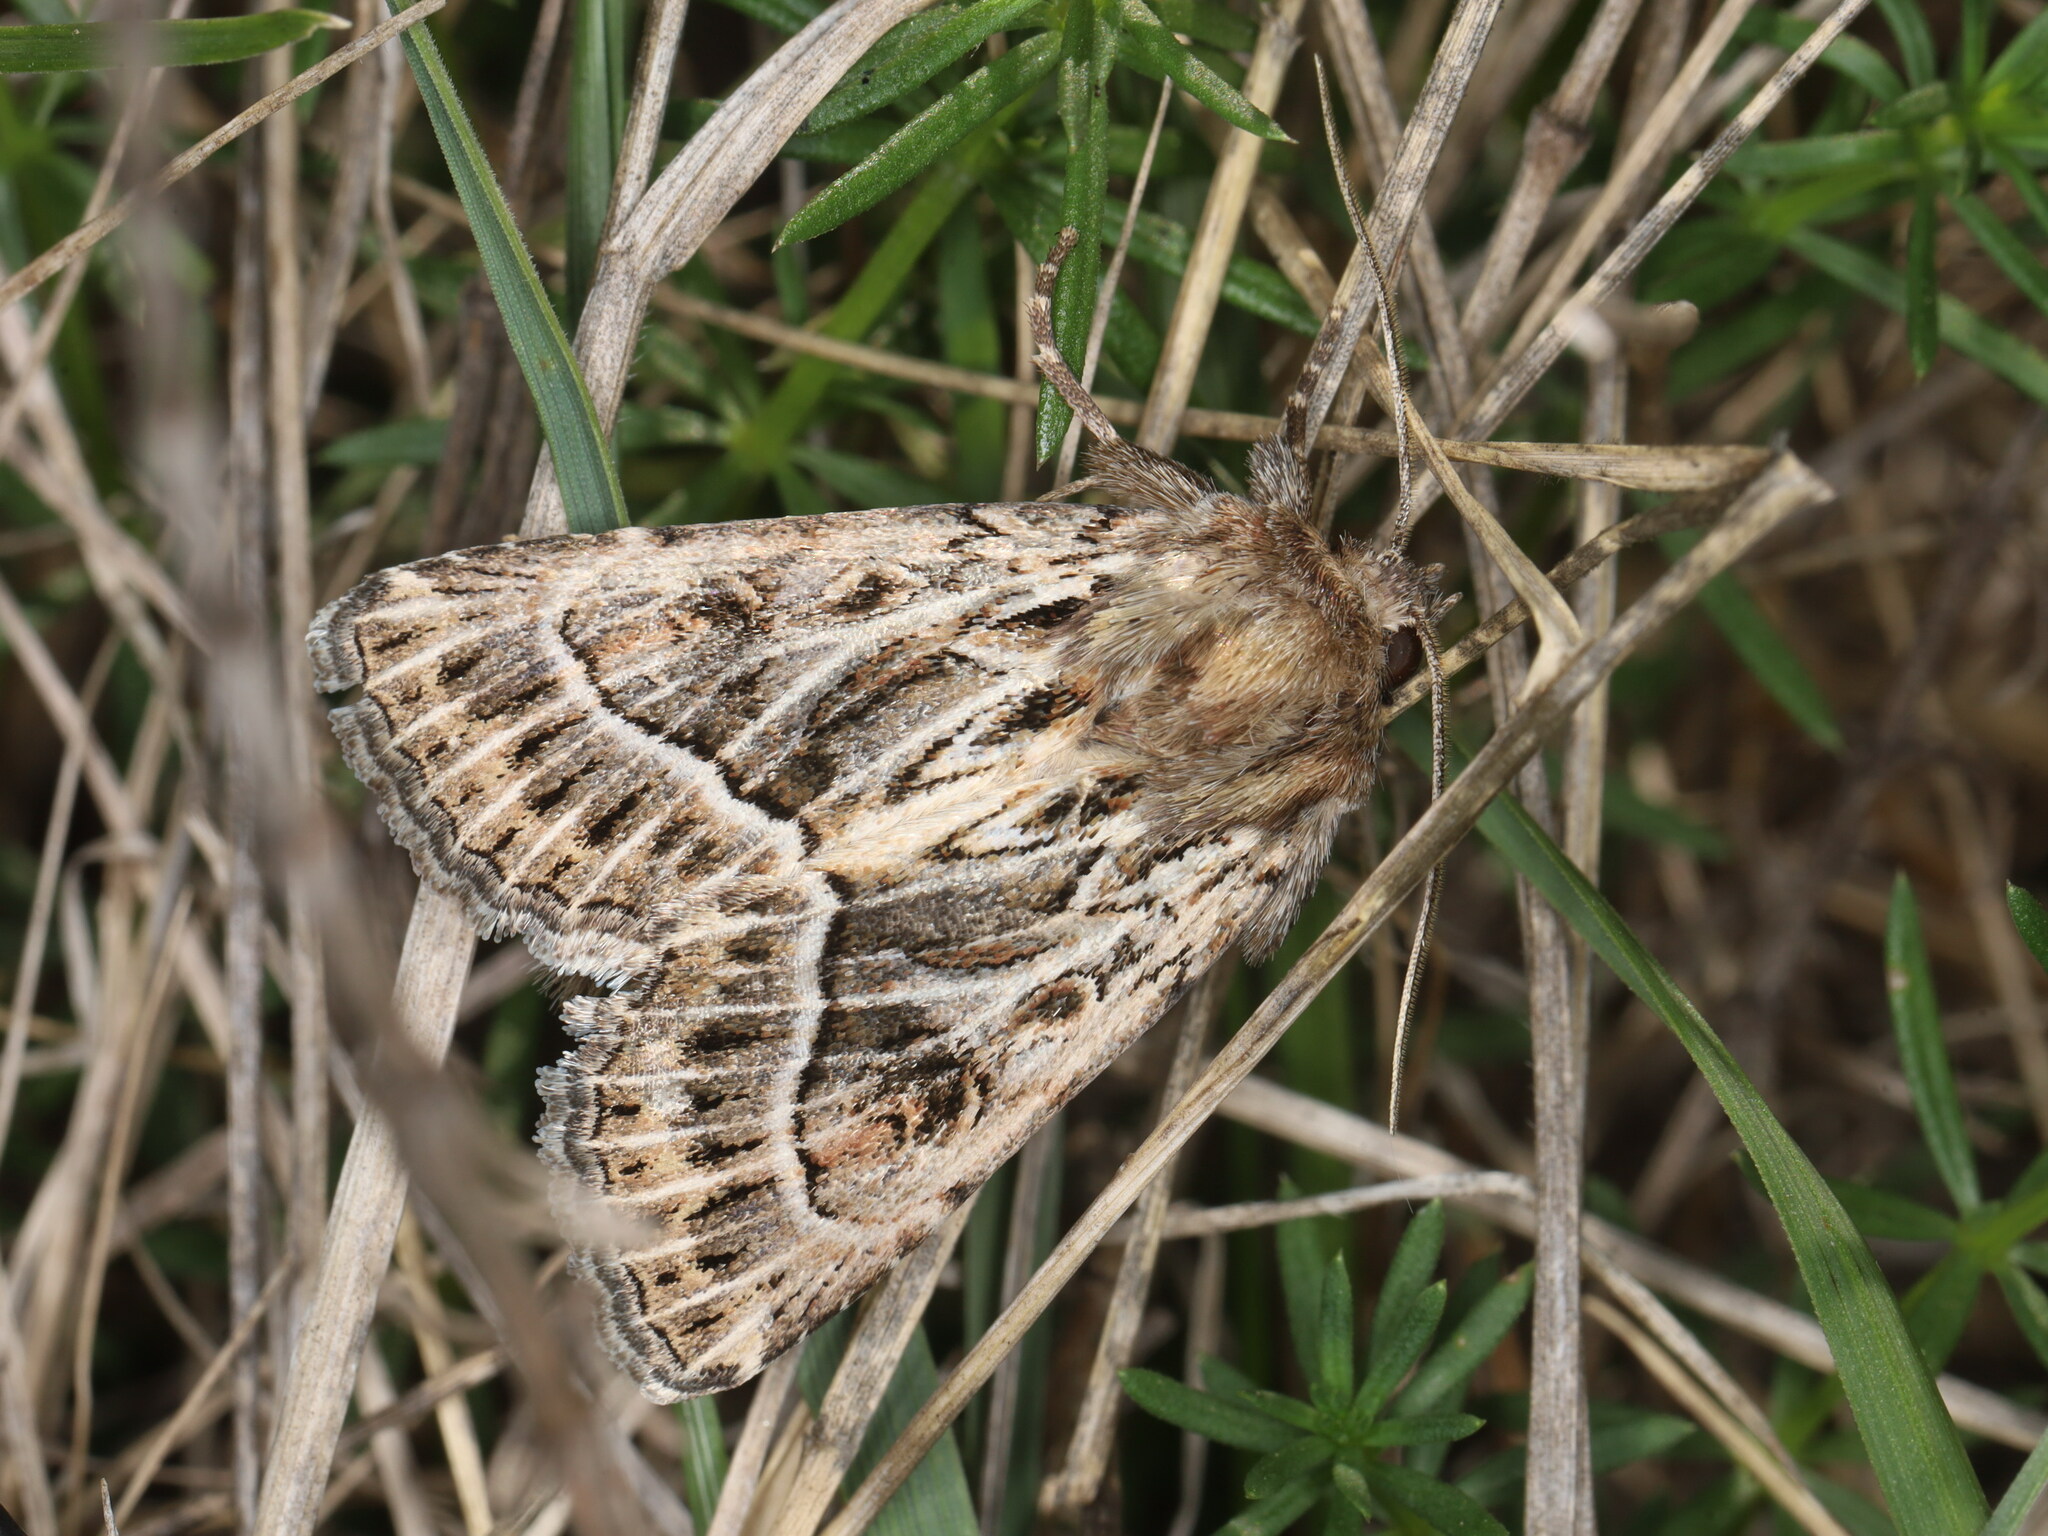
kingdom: Animalia
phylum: Arthropoda
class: Insecta
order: Lepidoptera
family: Noctuidae
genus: Thalpophila
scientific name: Thalpophila vitalba
